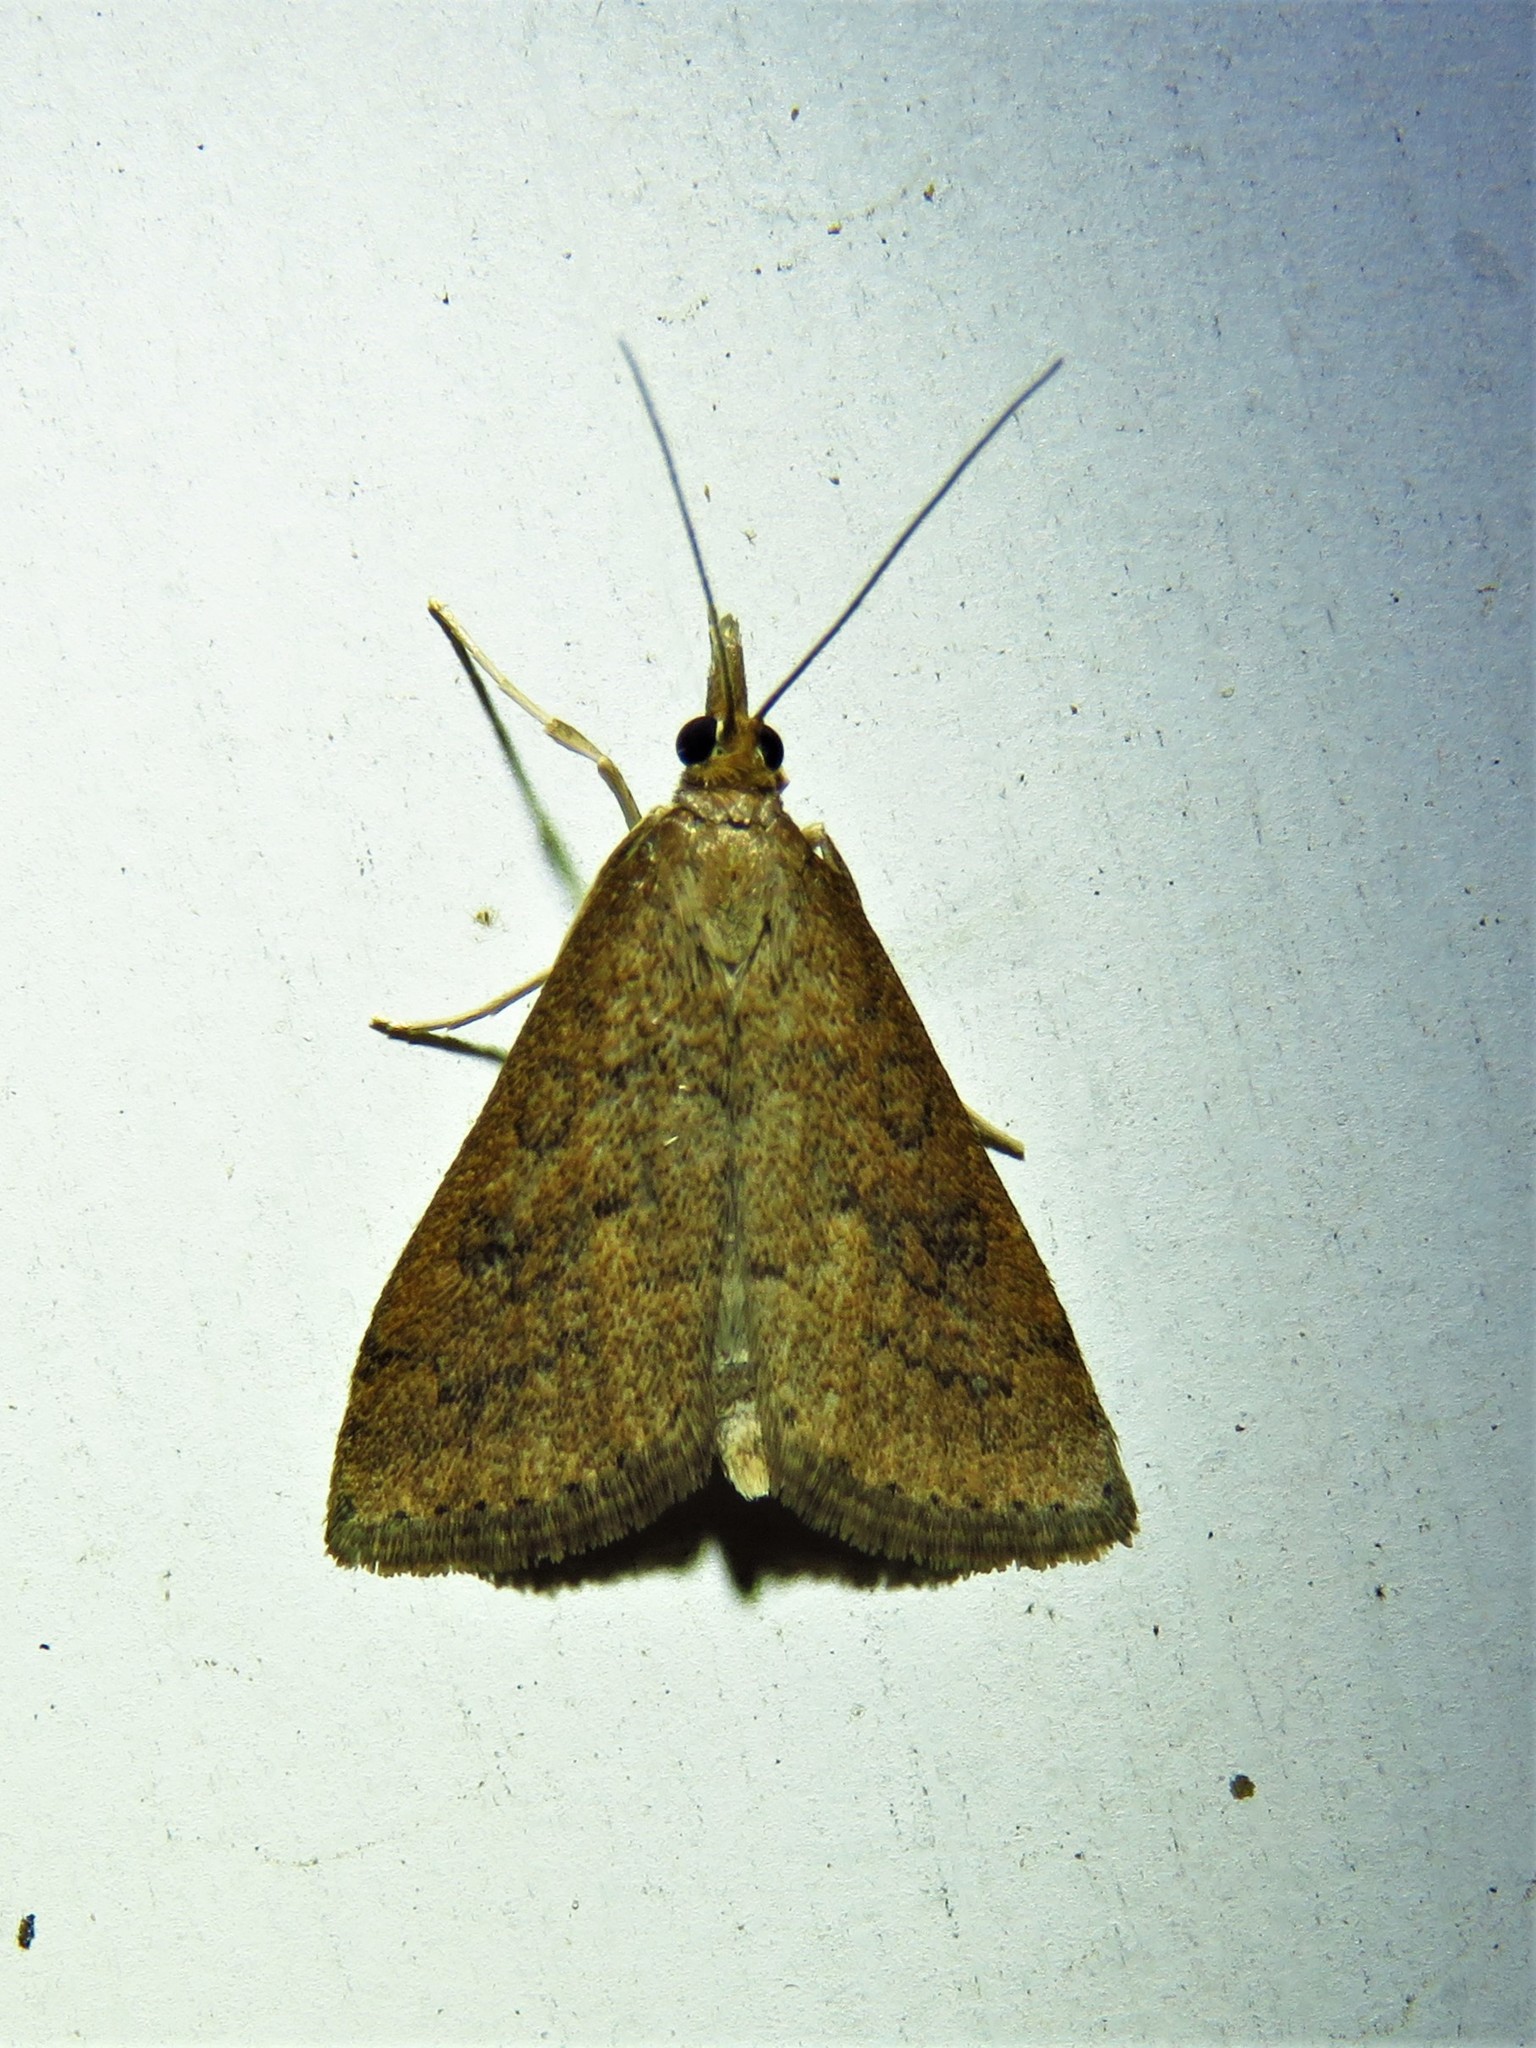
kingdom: Animalia
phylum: Arthropoda
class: Insecta
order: Lepidoptera
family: Crambidae
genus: Udea
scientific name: Udea rubigalis
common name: Celery leaftier moth
